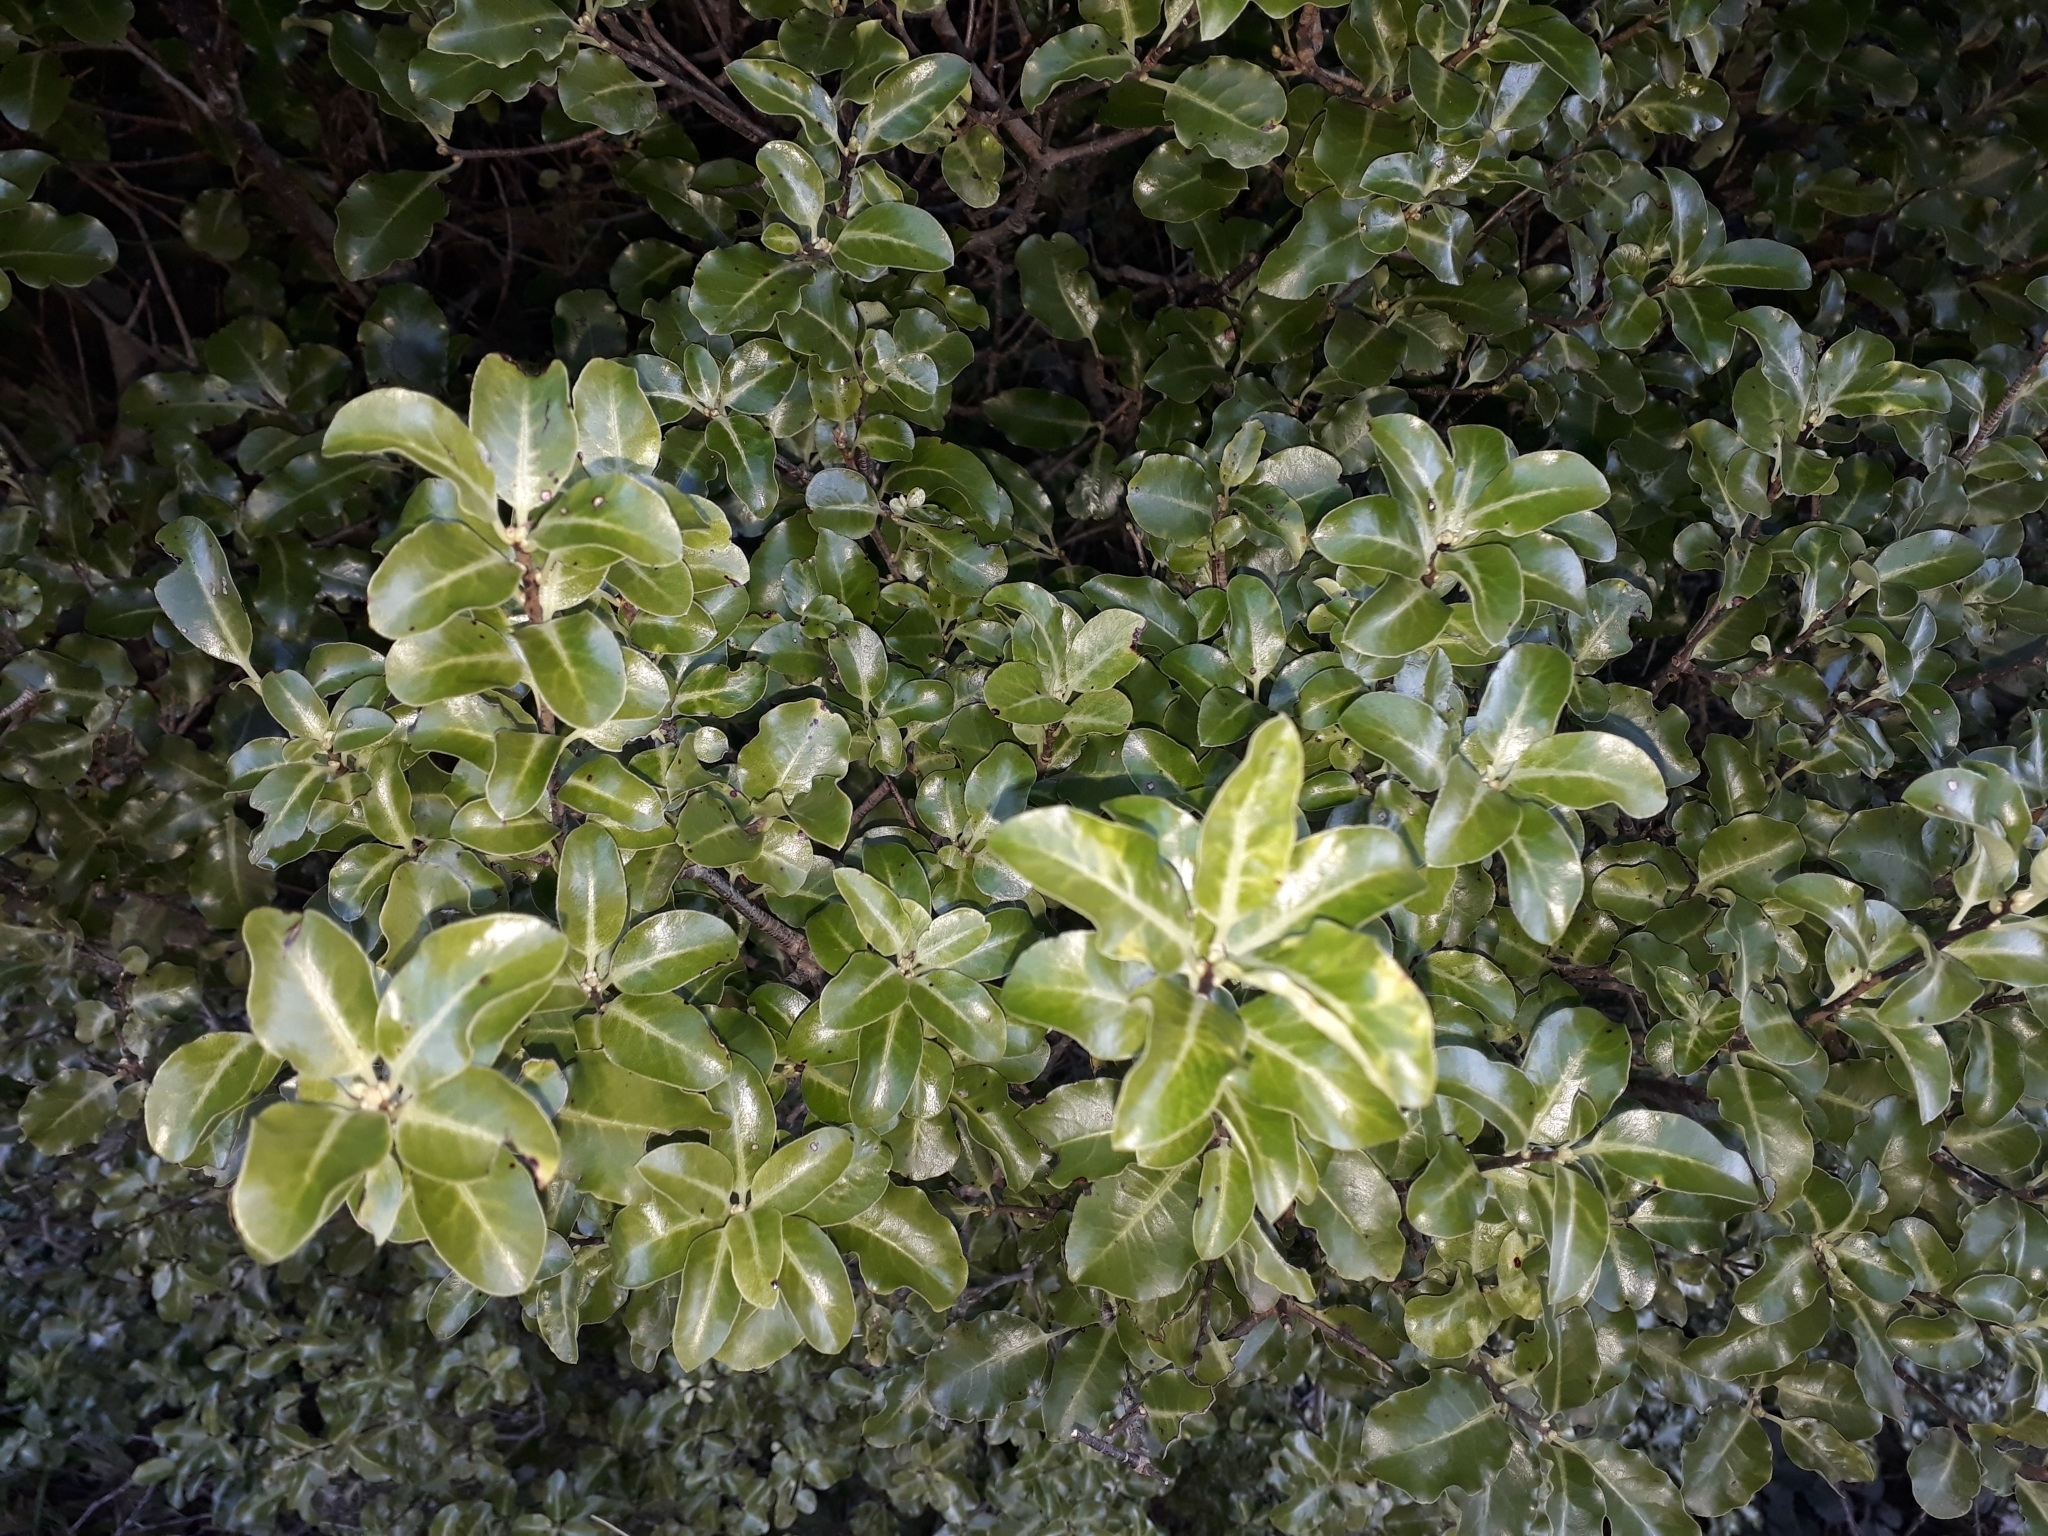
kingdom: Plantae
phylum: Tracheophyta
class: Magnoliopsida
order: Apiales
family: Pittosporaceae
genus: Pittosporum
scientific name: Pittosporum tenuifolium
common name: Kohuhu
